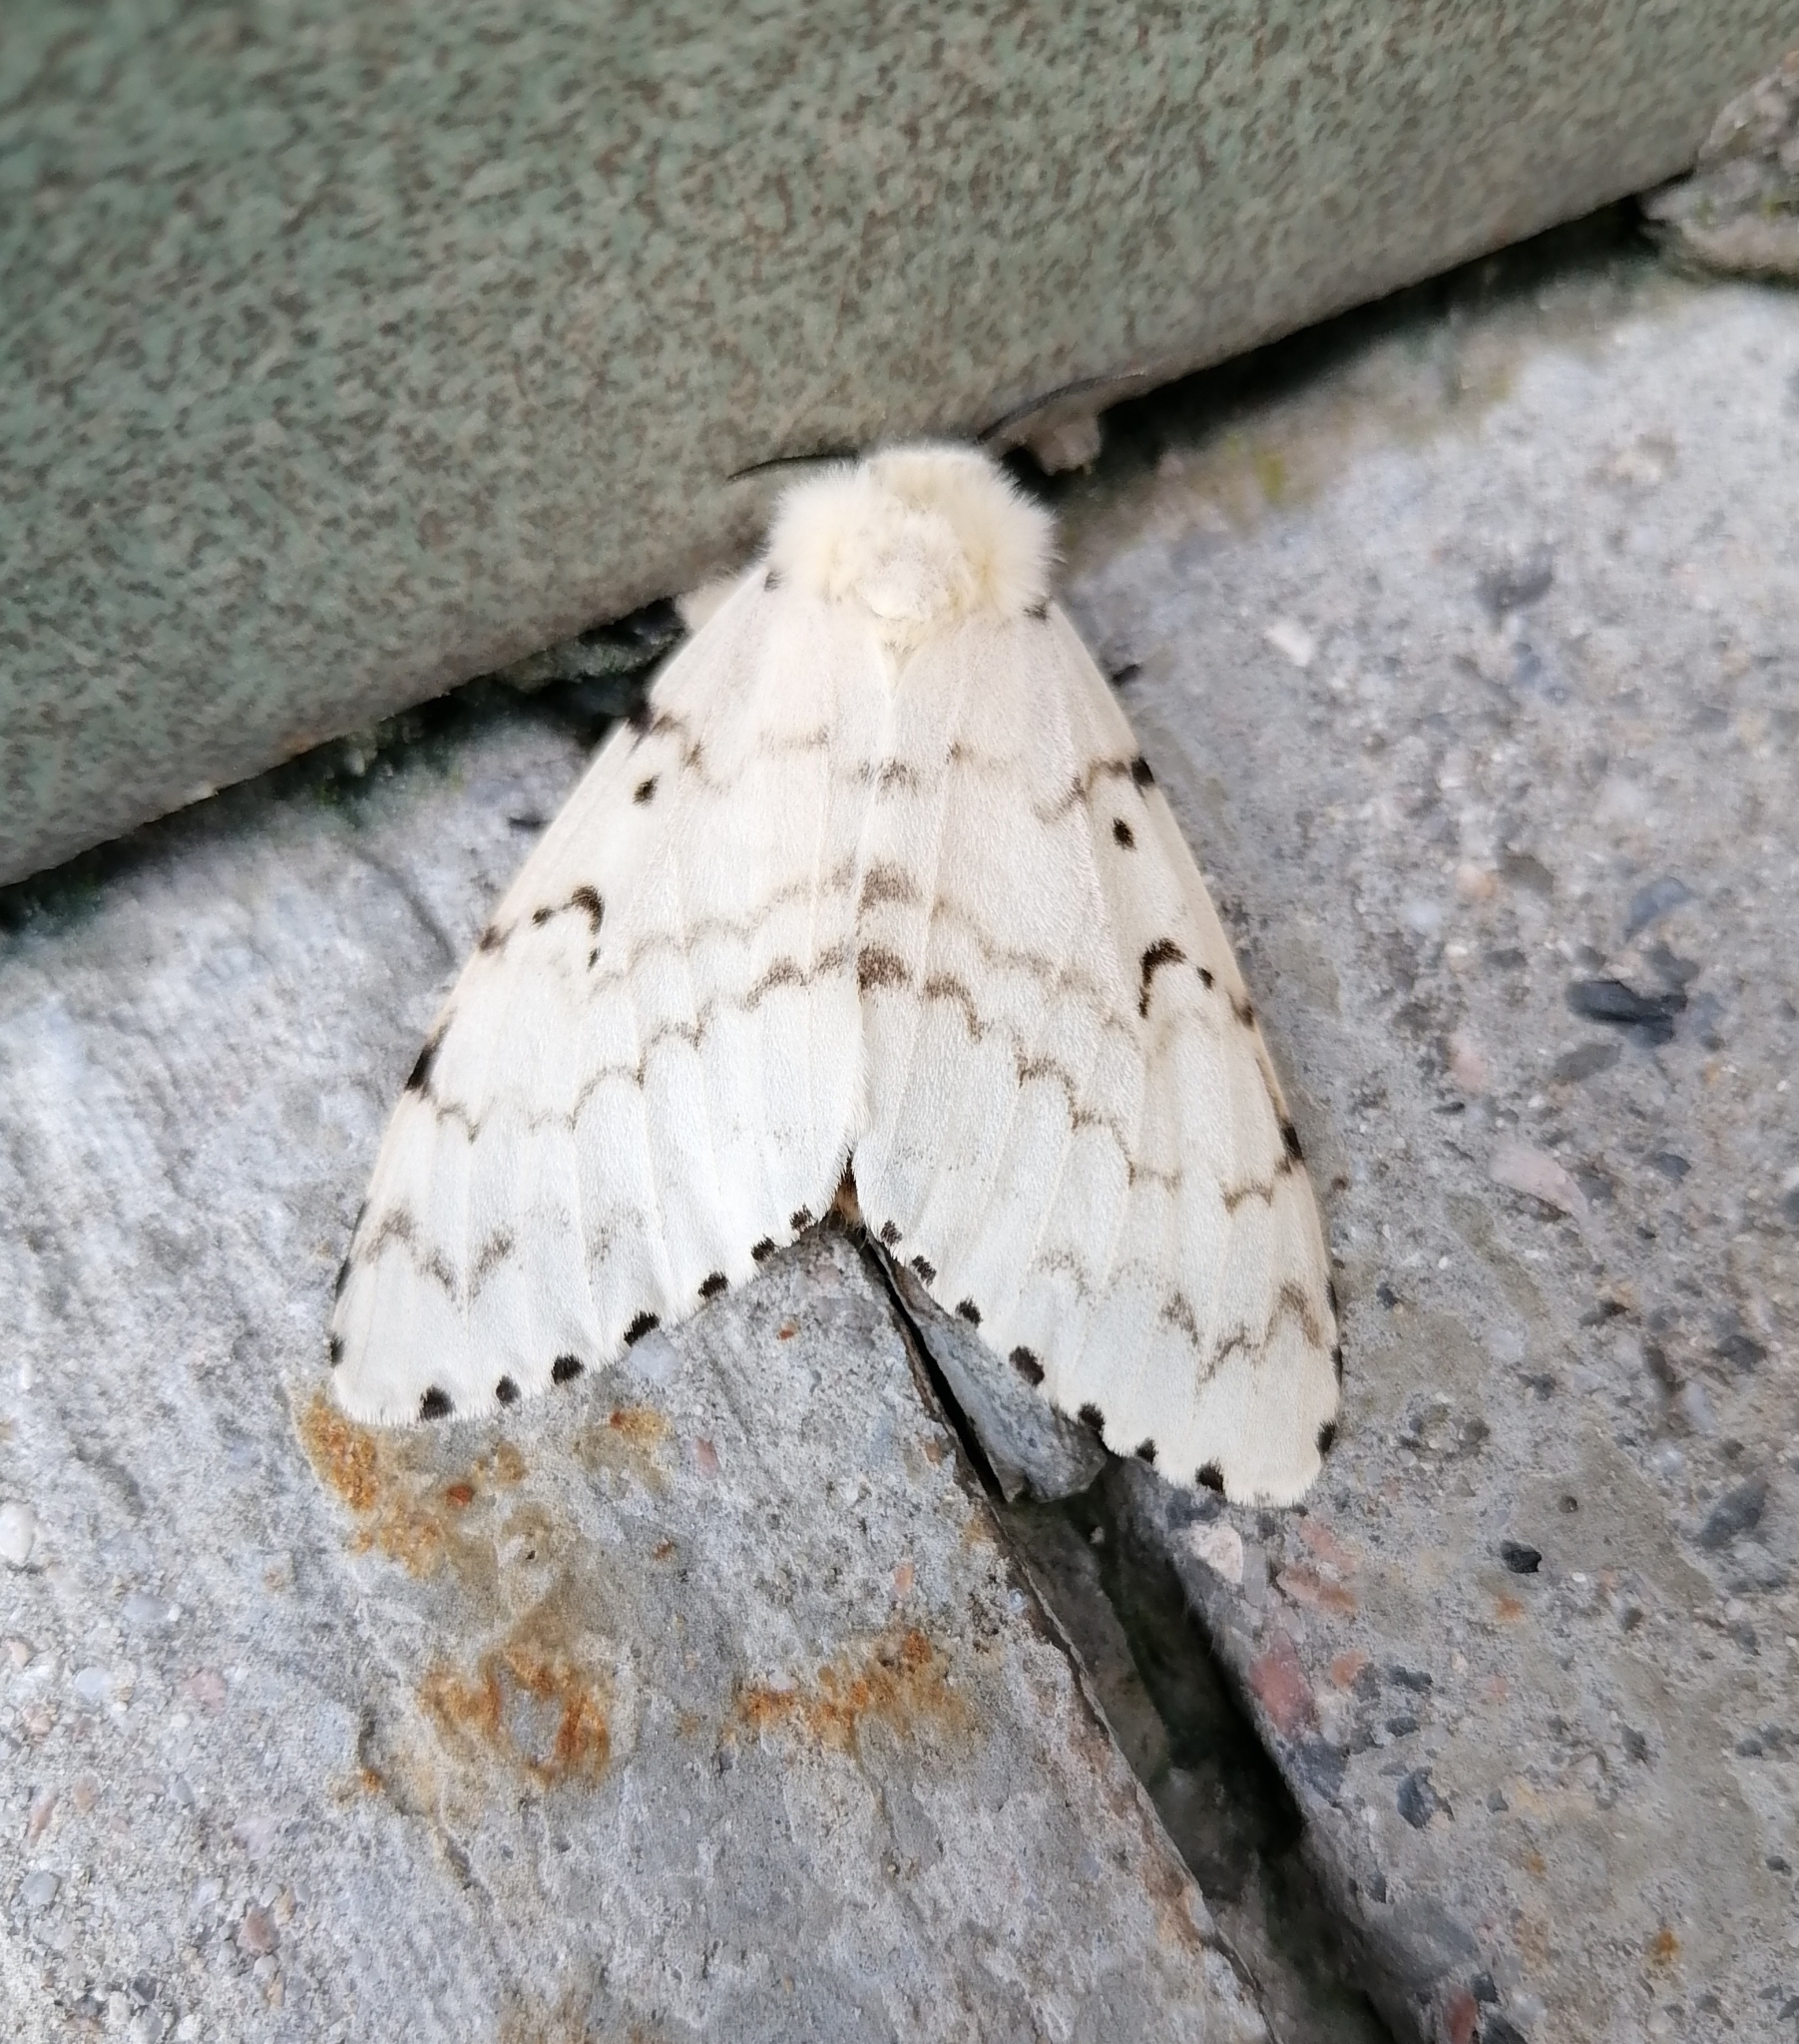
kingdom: Animalia
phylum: Arthropoda
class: Insecta
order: Lepidoptera
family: Erebidae
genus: Lymantria
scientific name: Lymantria dispar
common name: Gypsy moth
